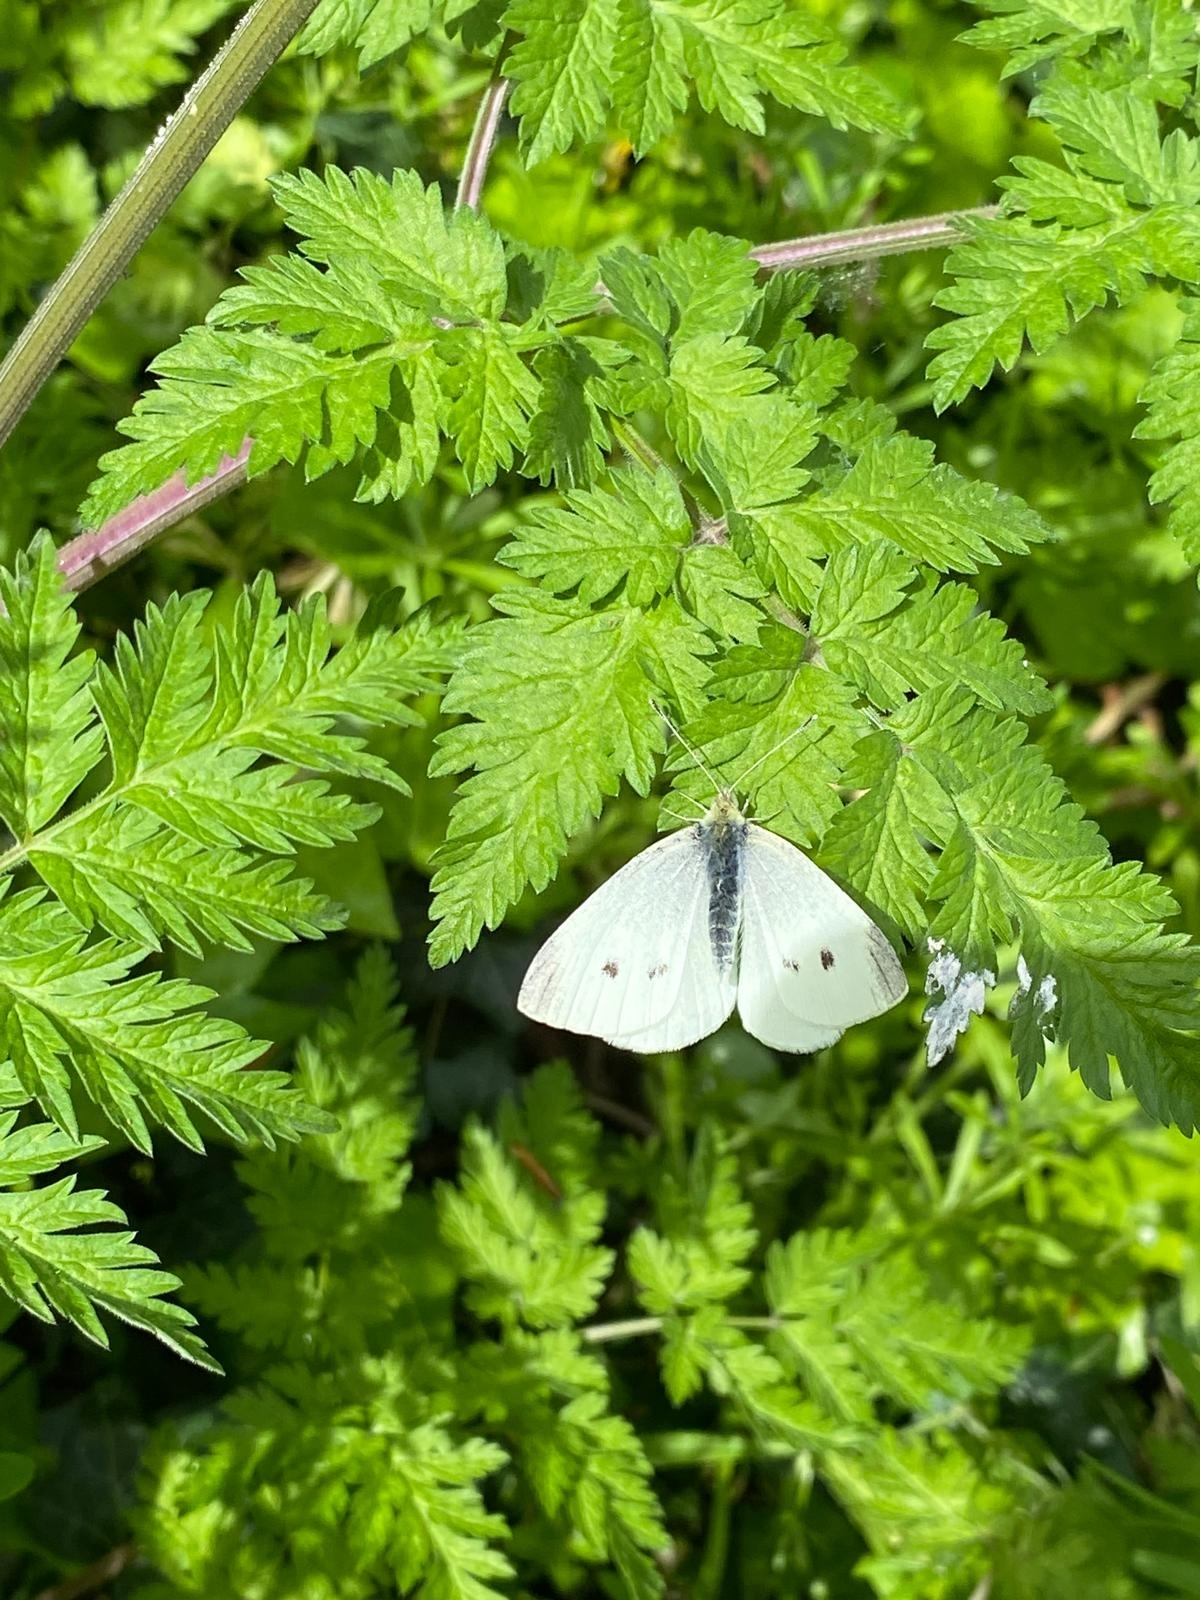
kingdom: Animalia
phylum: Arthropoda
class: Insecta
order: Lepidoptera
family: Pieridae
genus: Pieris
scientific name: Pieris rapae
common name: Small white
